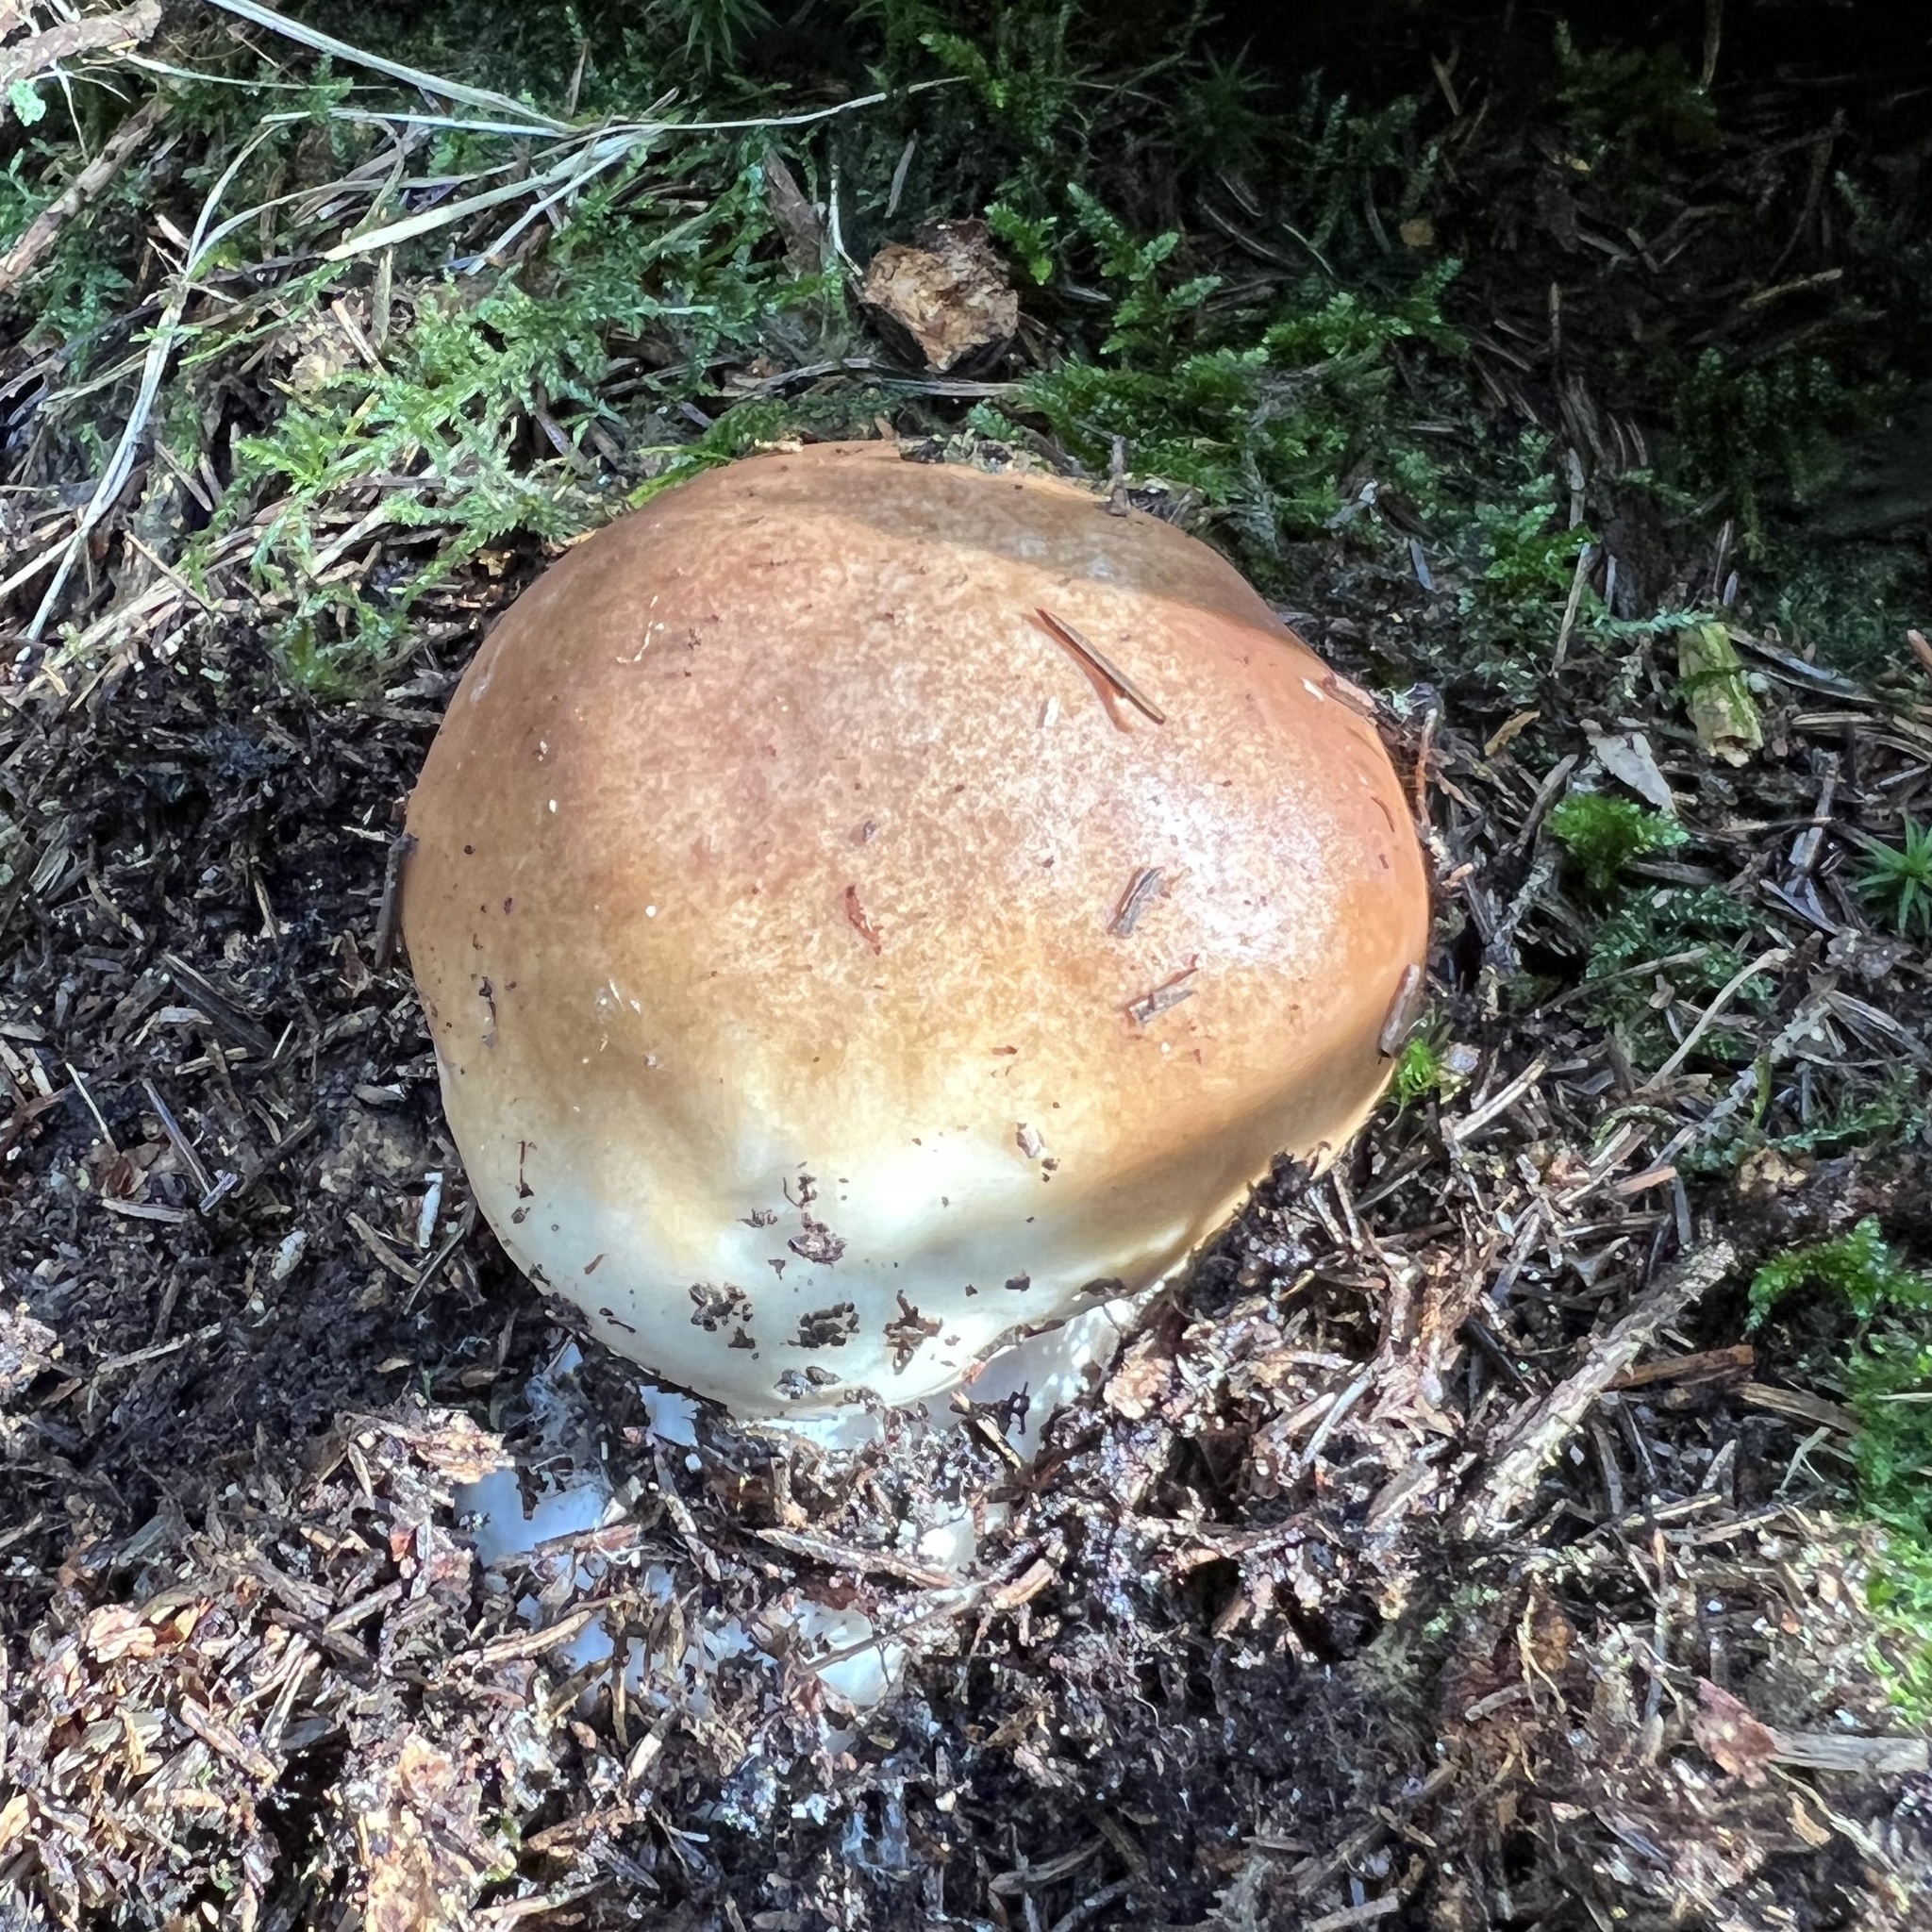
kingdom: Fungi
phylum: Basidiomycota
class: Agaricomycetes
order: Boletales
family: Boletaceae
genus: Boletus
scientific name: Boletus edulis
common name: Cep
